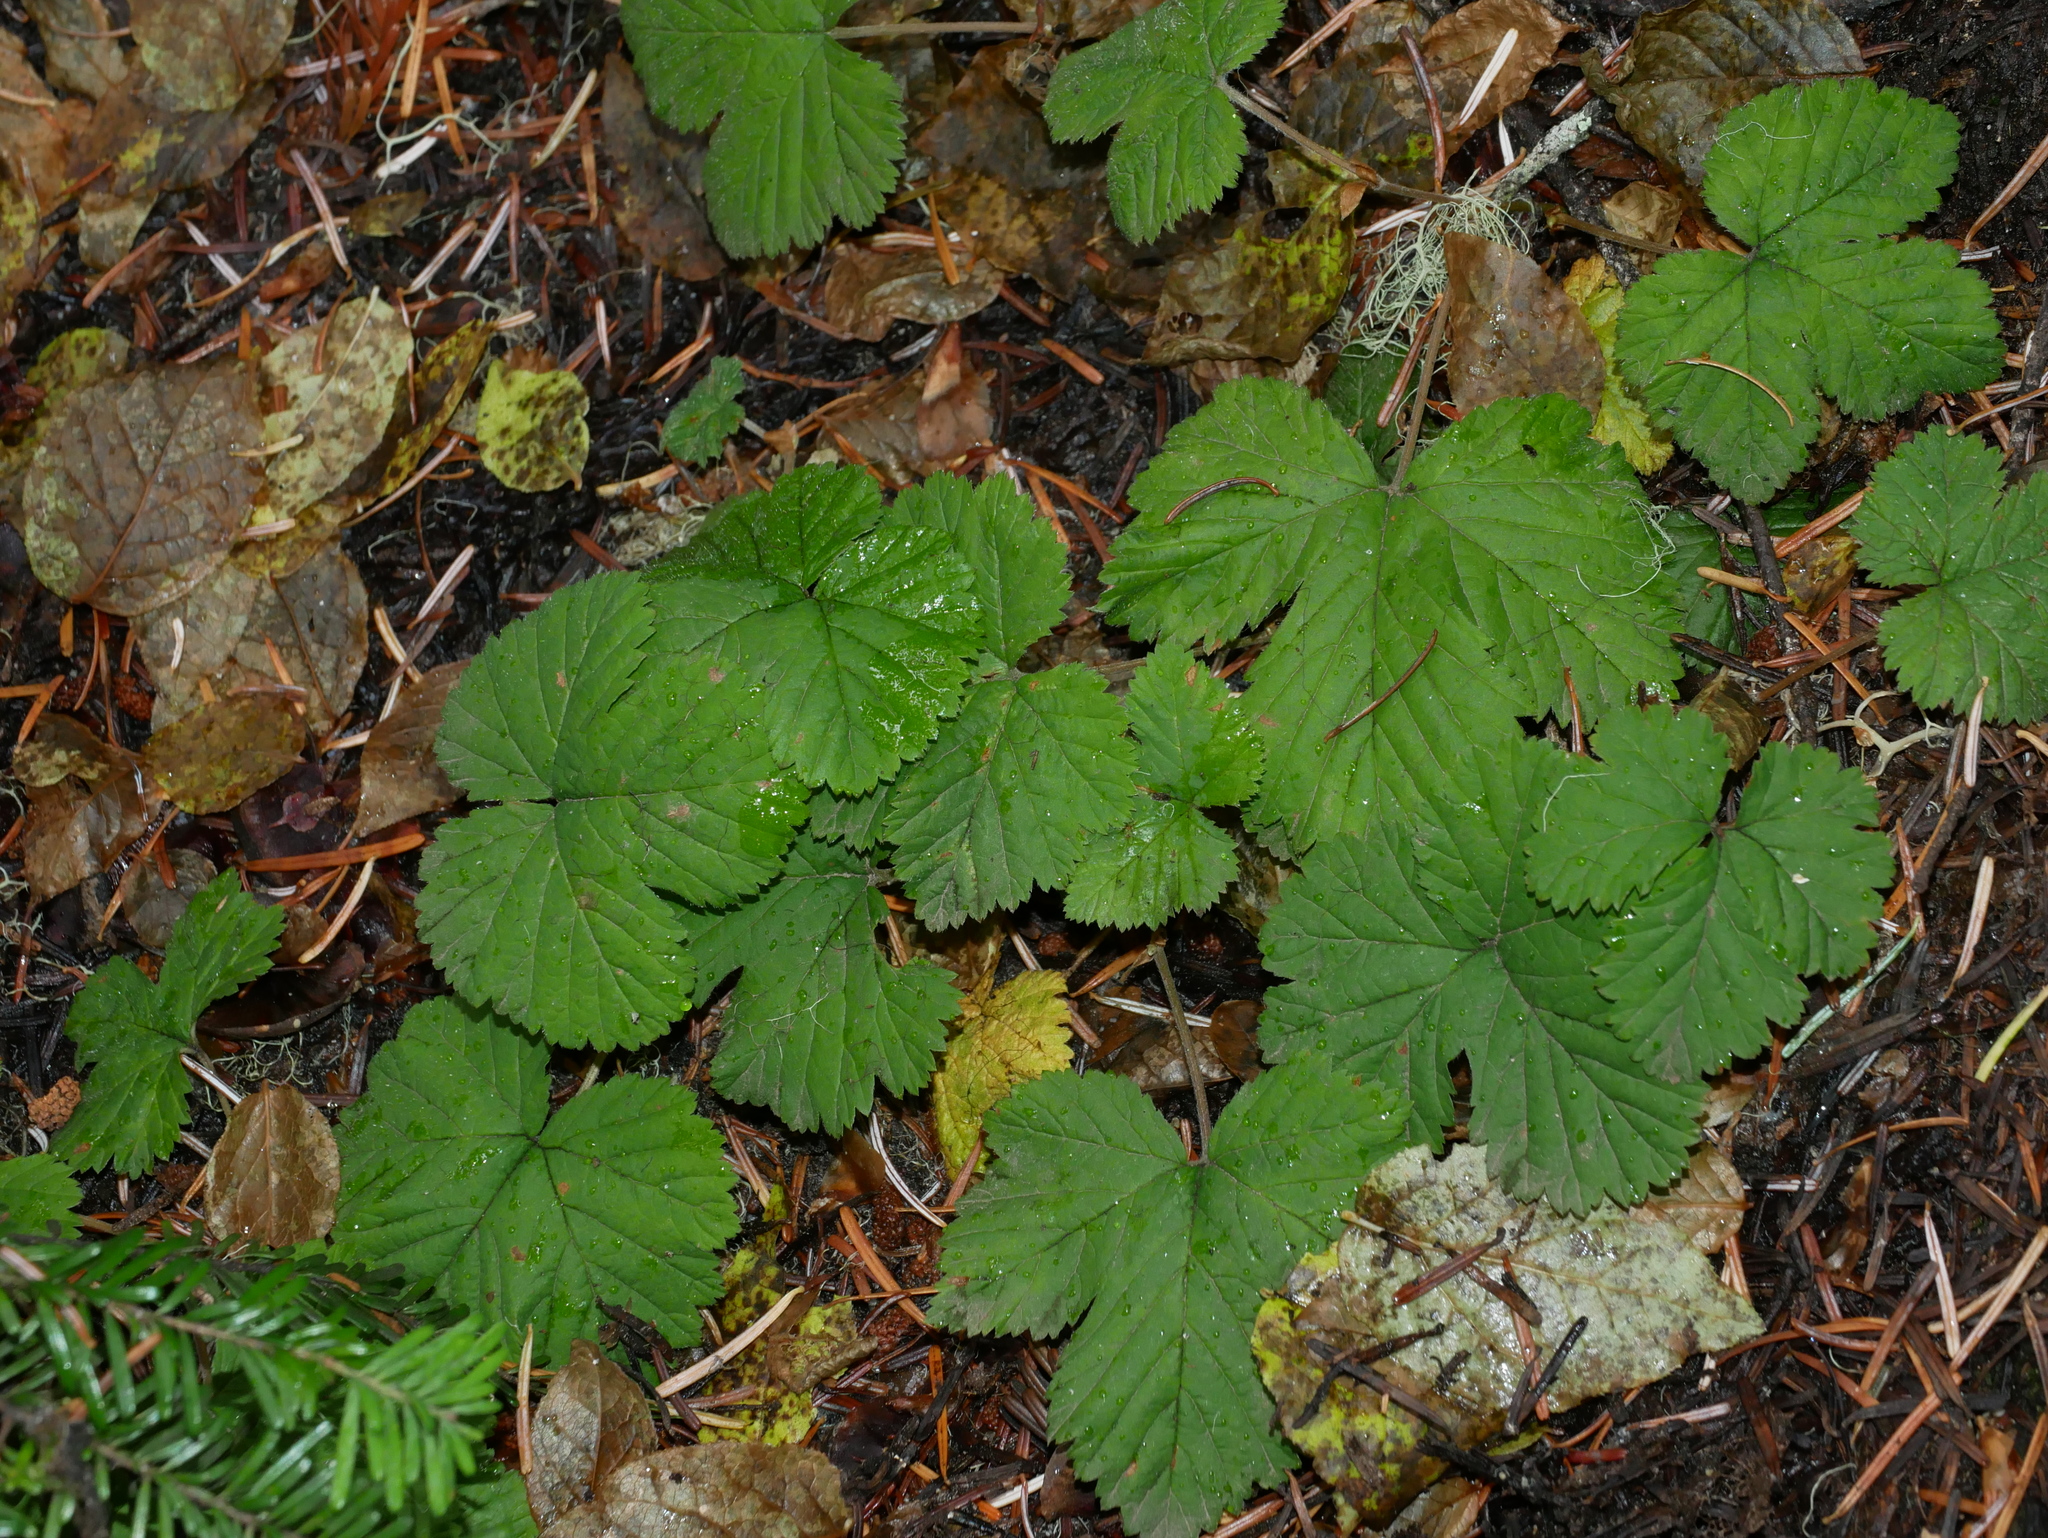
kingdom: Plantae
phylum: Tracheophyta
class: Magnoliopsida
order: Rosales
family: Rosaceae
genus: Rubus
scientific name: Rubus lasiococcus
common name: Dwarf bramble
